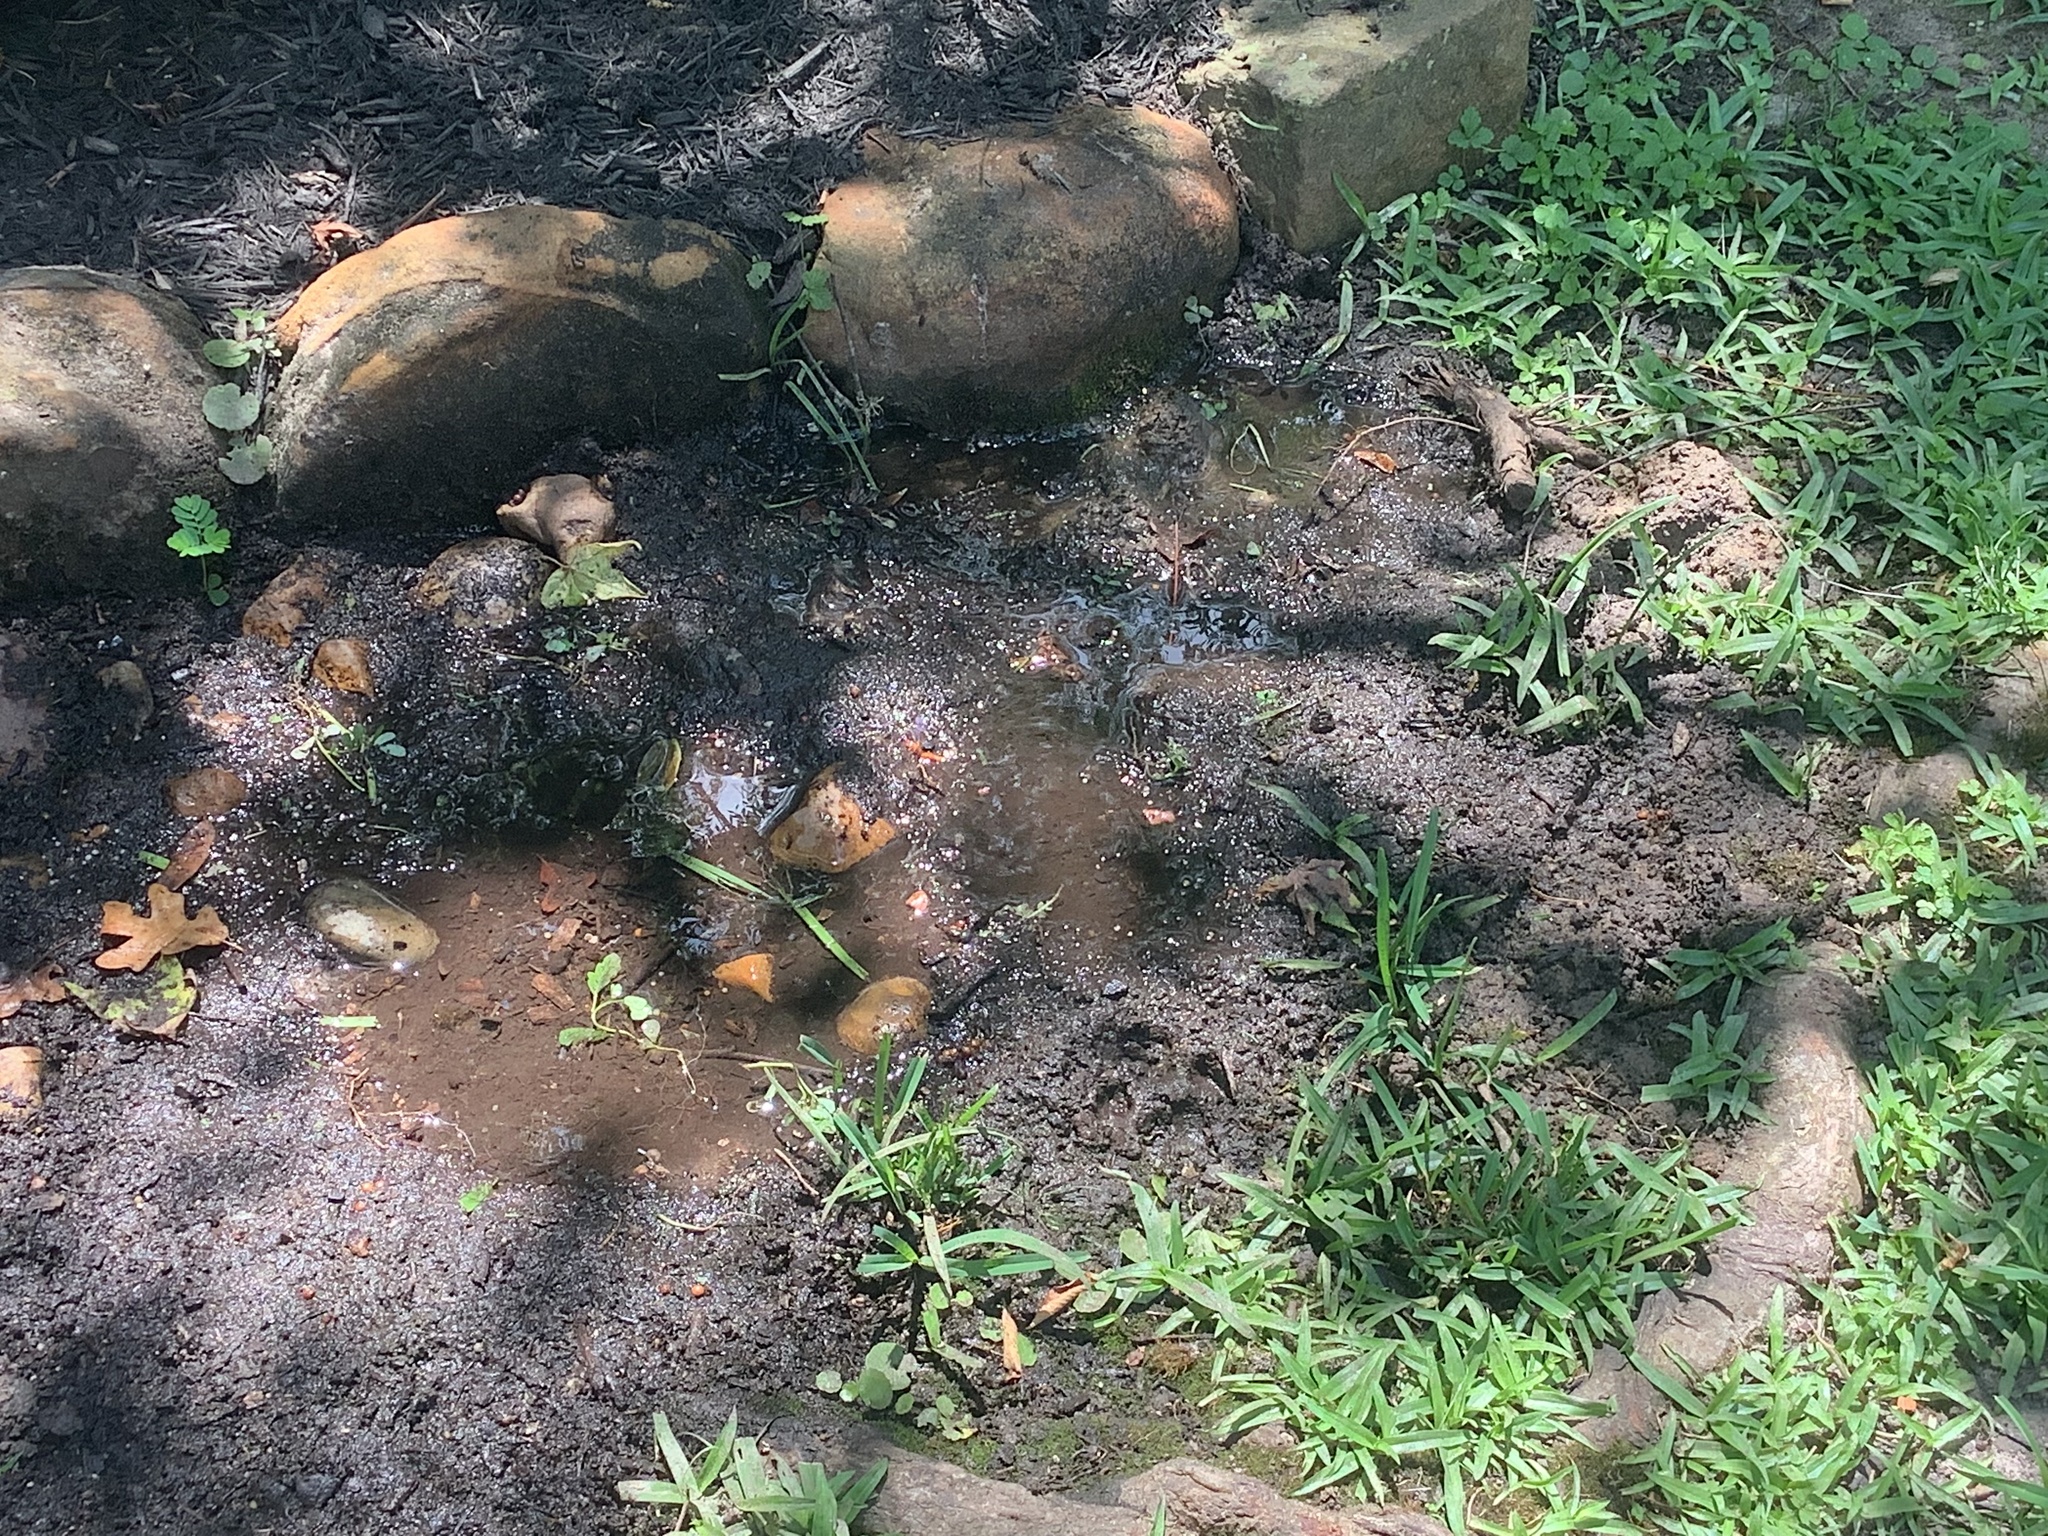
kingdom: Animalia
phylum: Arthropoda
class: Insecta
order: Hymenoptera
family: Vespidae
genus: Fuscopolistes
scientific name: Fuscopolistes
